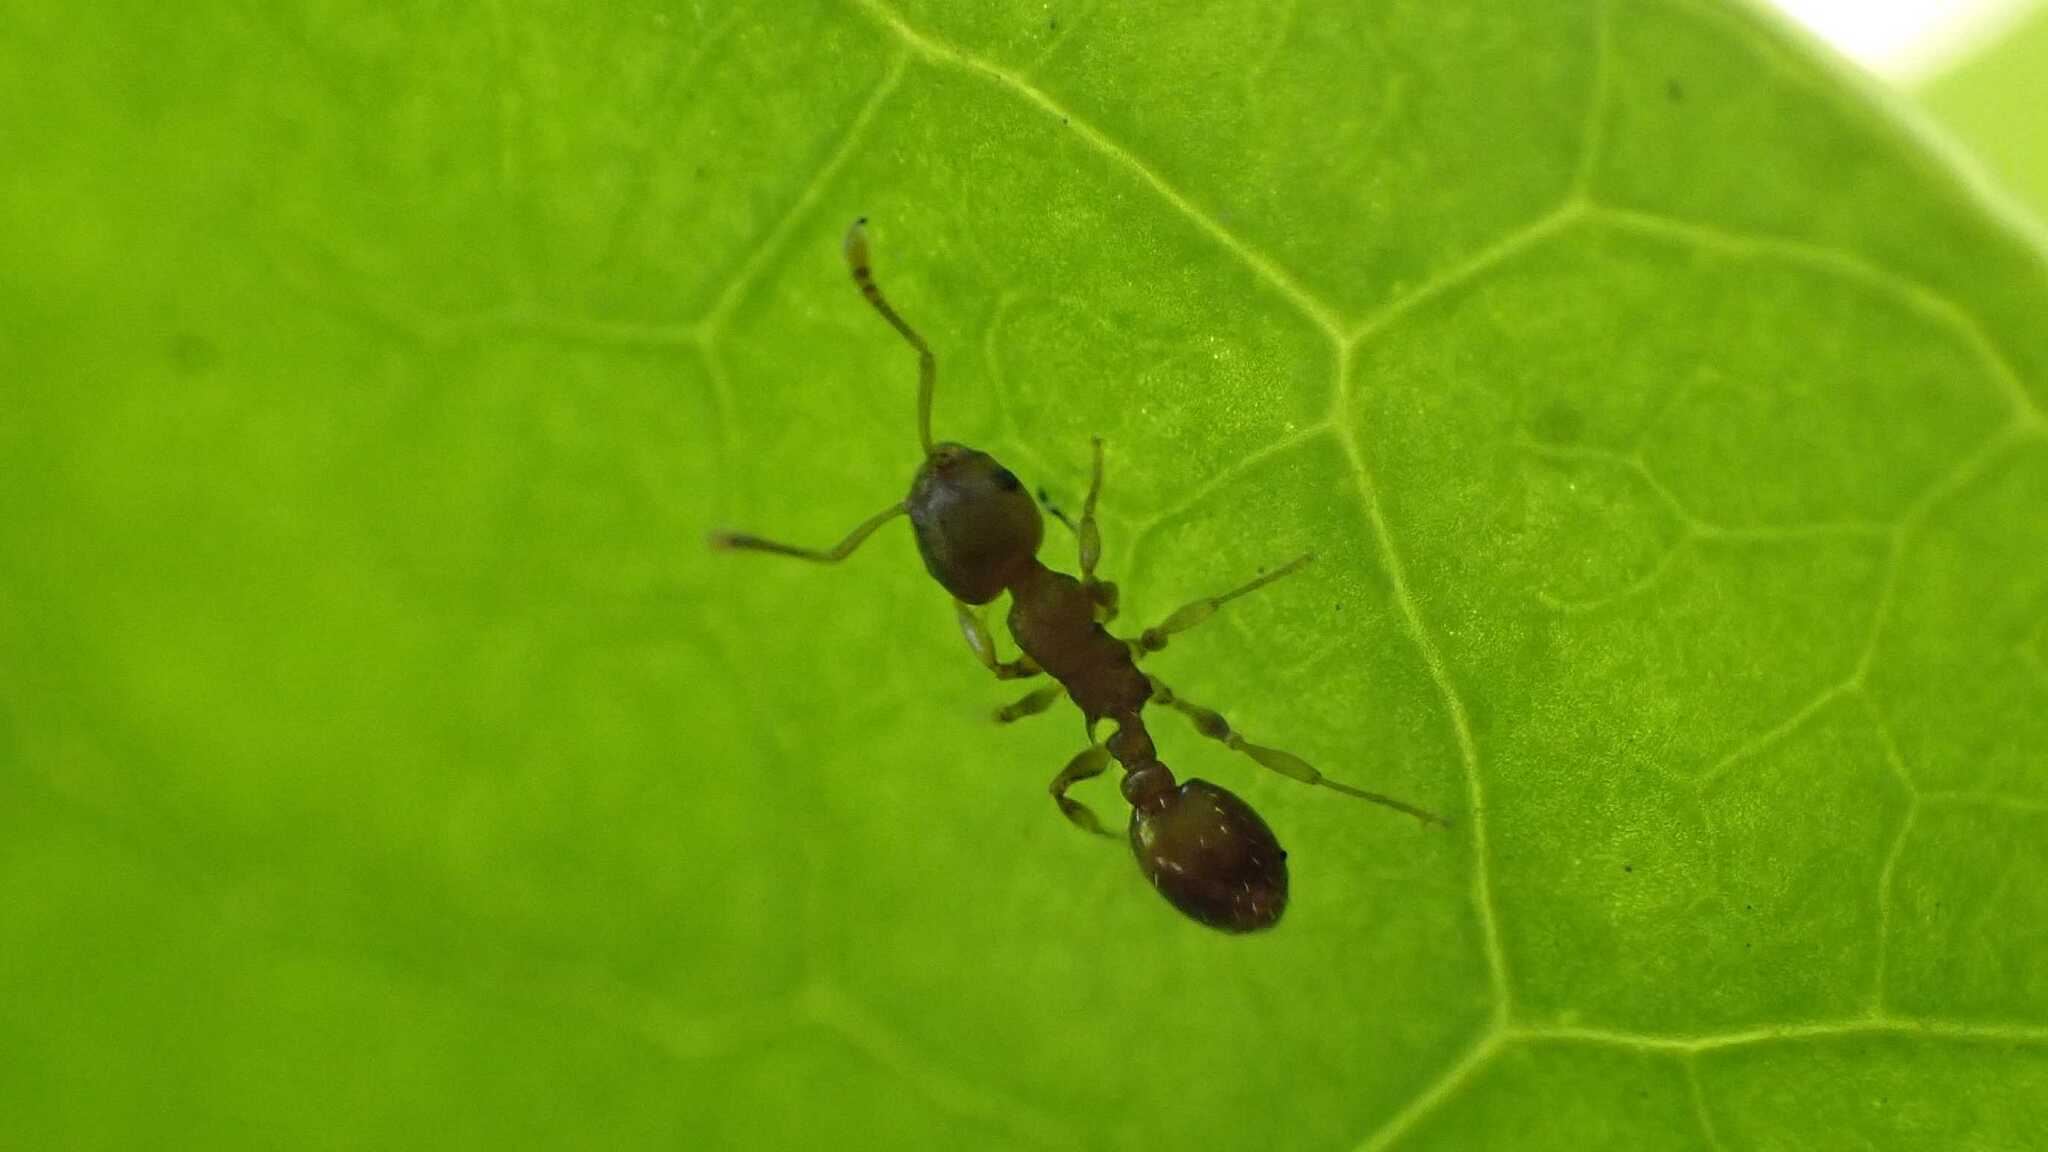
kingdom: Animalia
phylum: Arthropoda
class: Insecta
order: Hymenoptera
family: Formicidae
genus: Temnothorax
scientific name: Temnothorax
